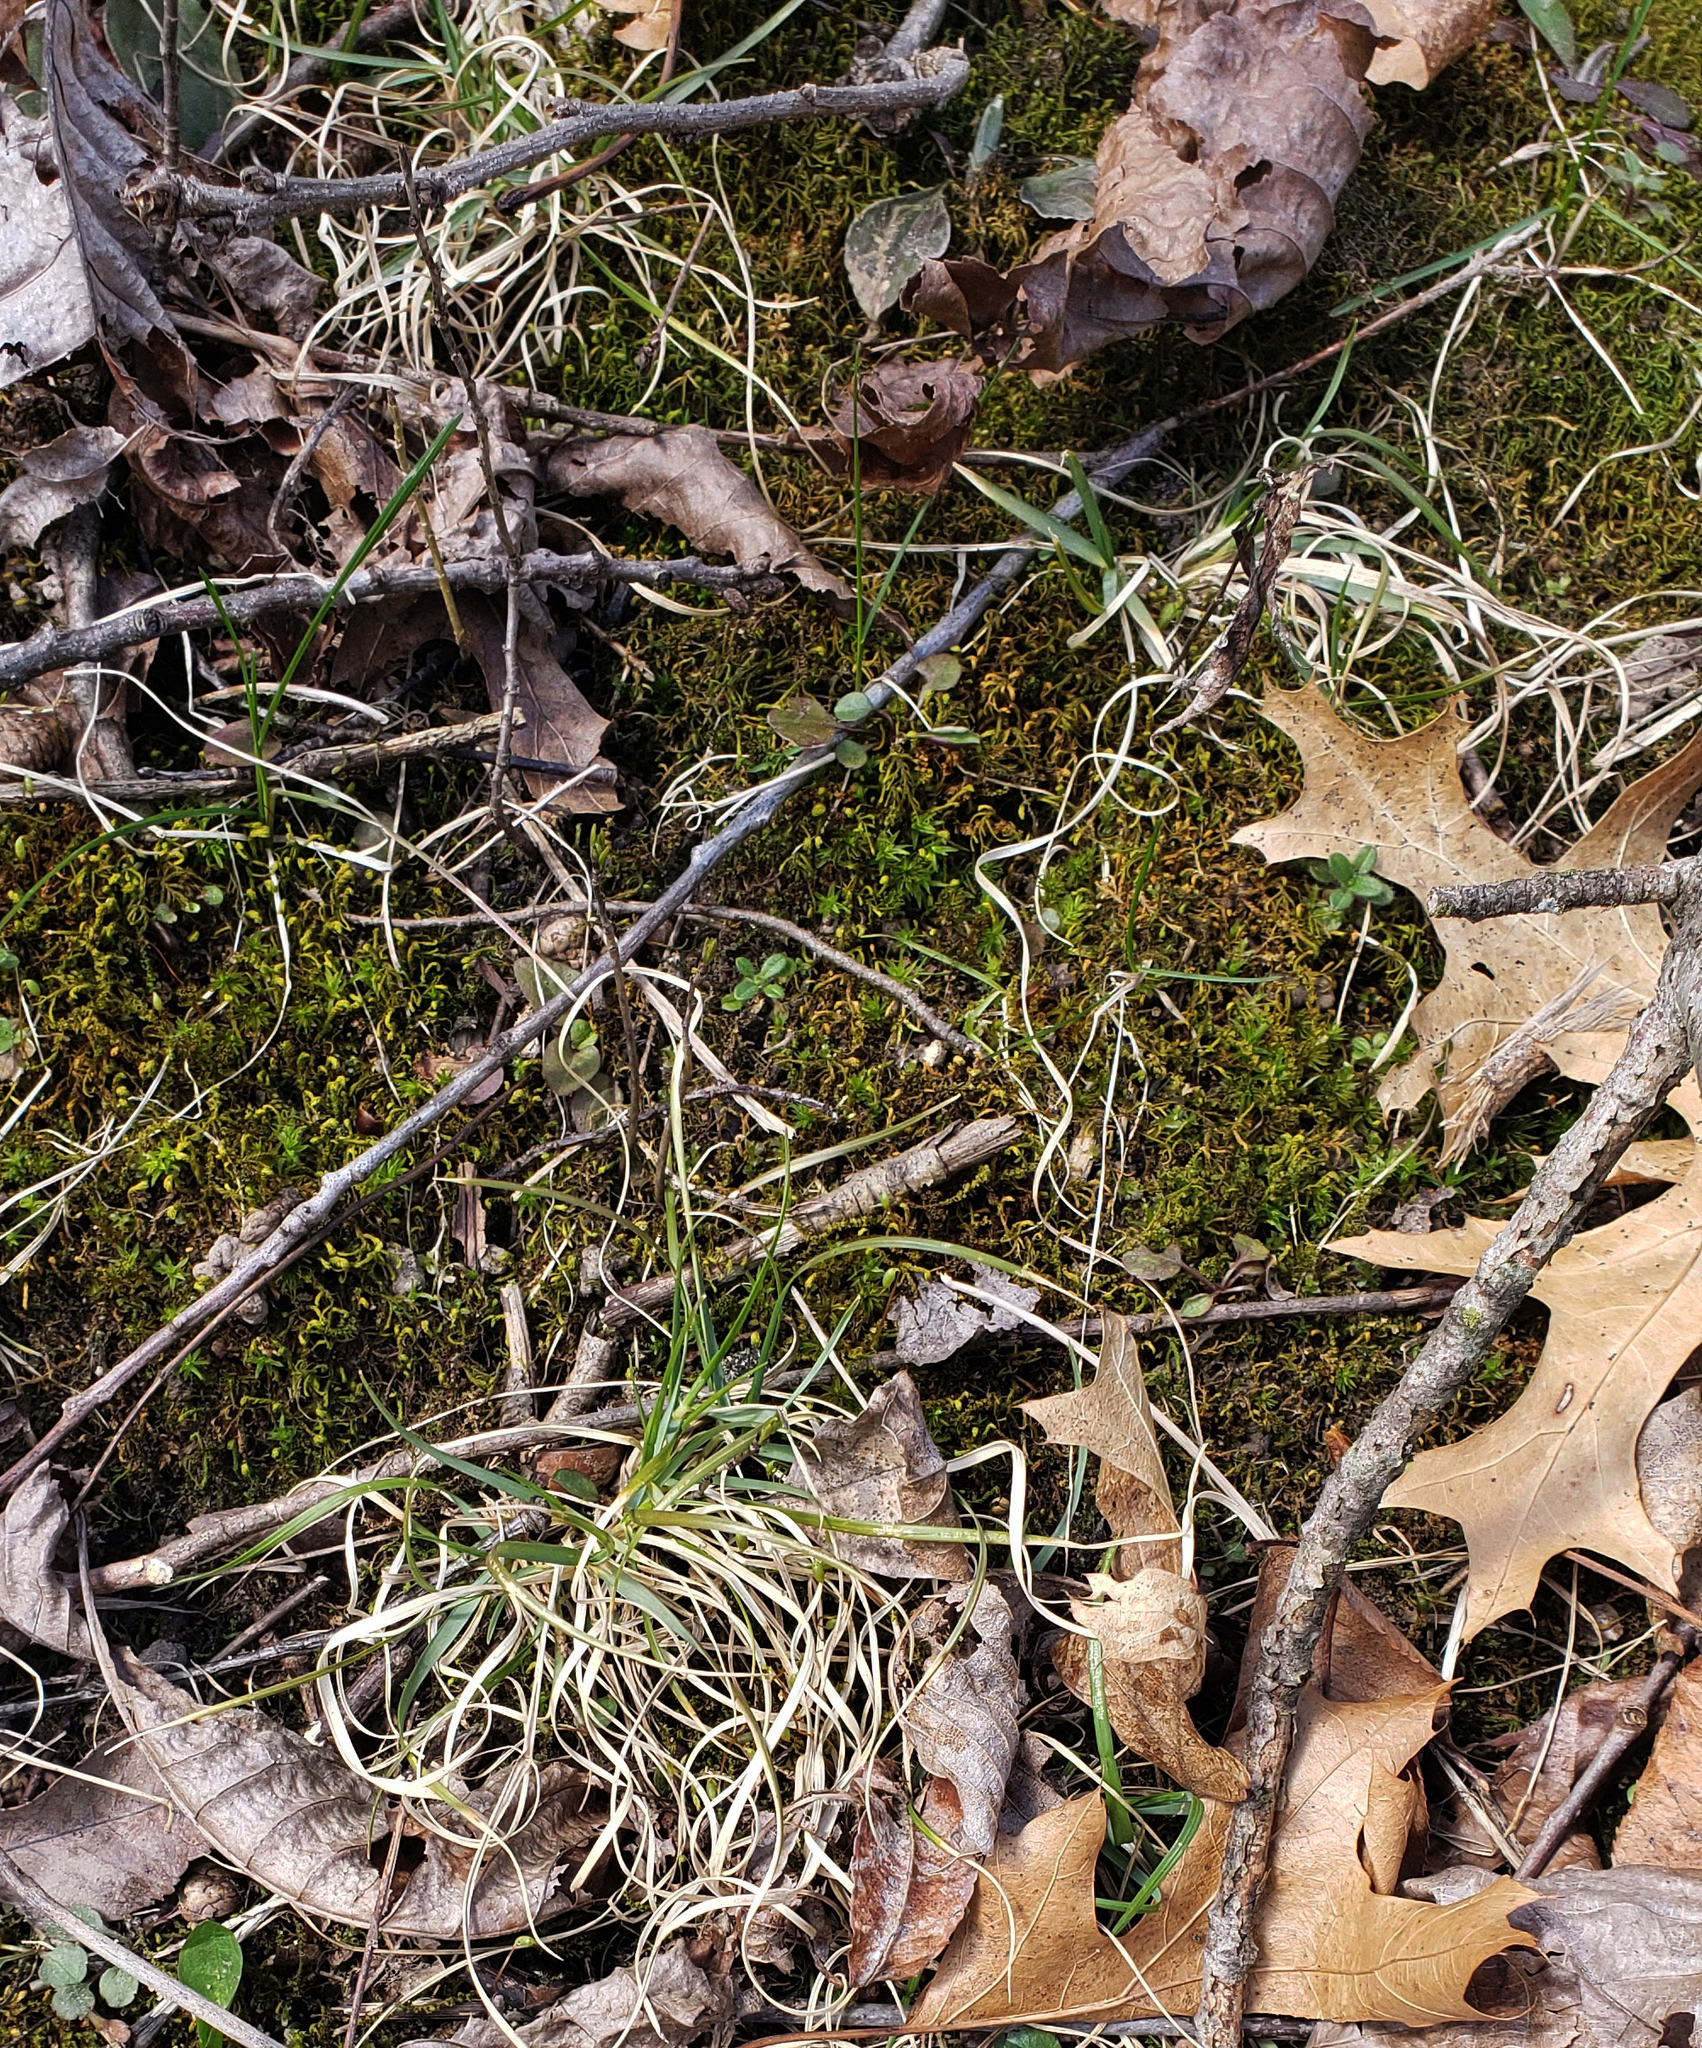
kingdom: Plantae
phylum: Tracheophyta
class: Liliopsida
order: Poales
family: Poaceae
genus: Danthonia
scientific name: Danthonia spicata
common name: Common wild oatgrass
